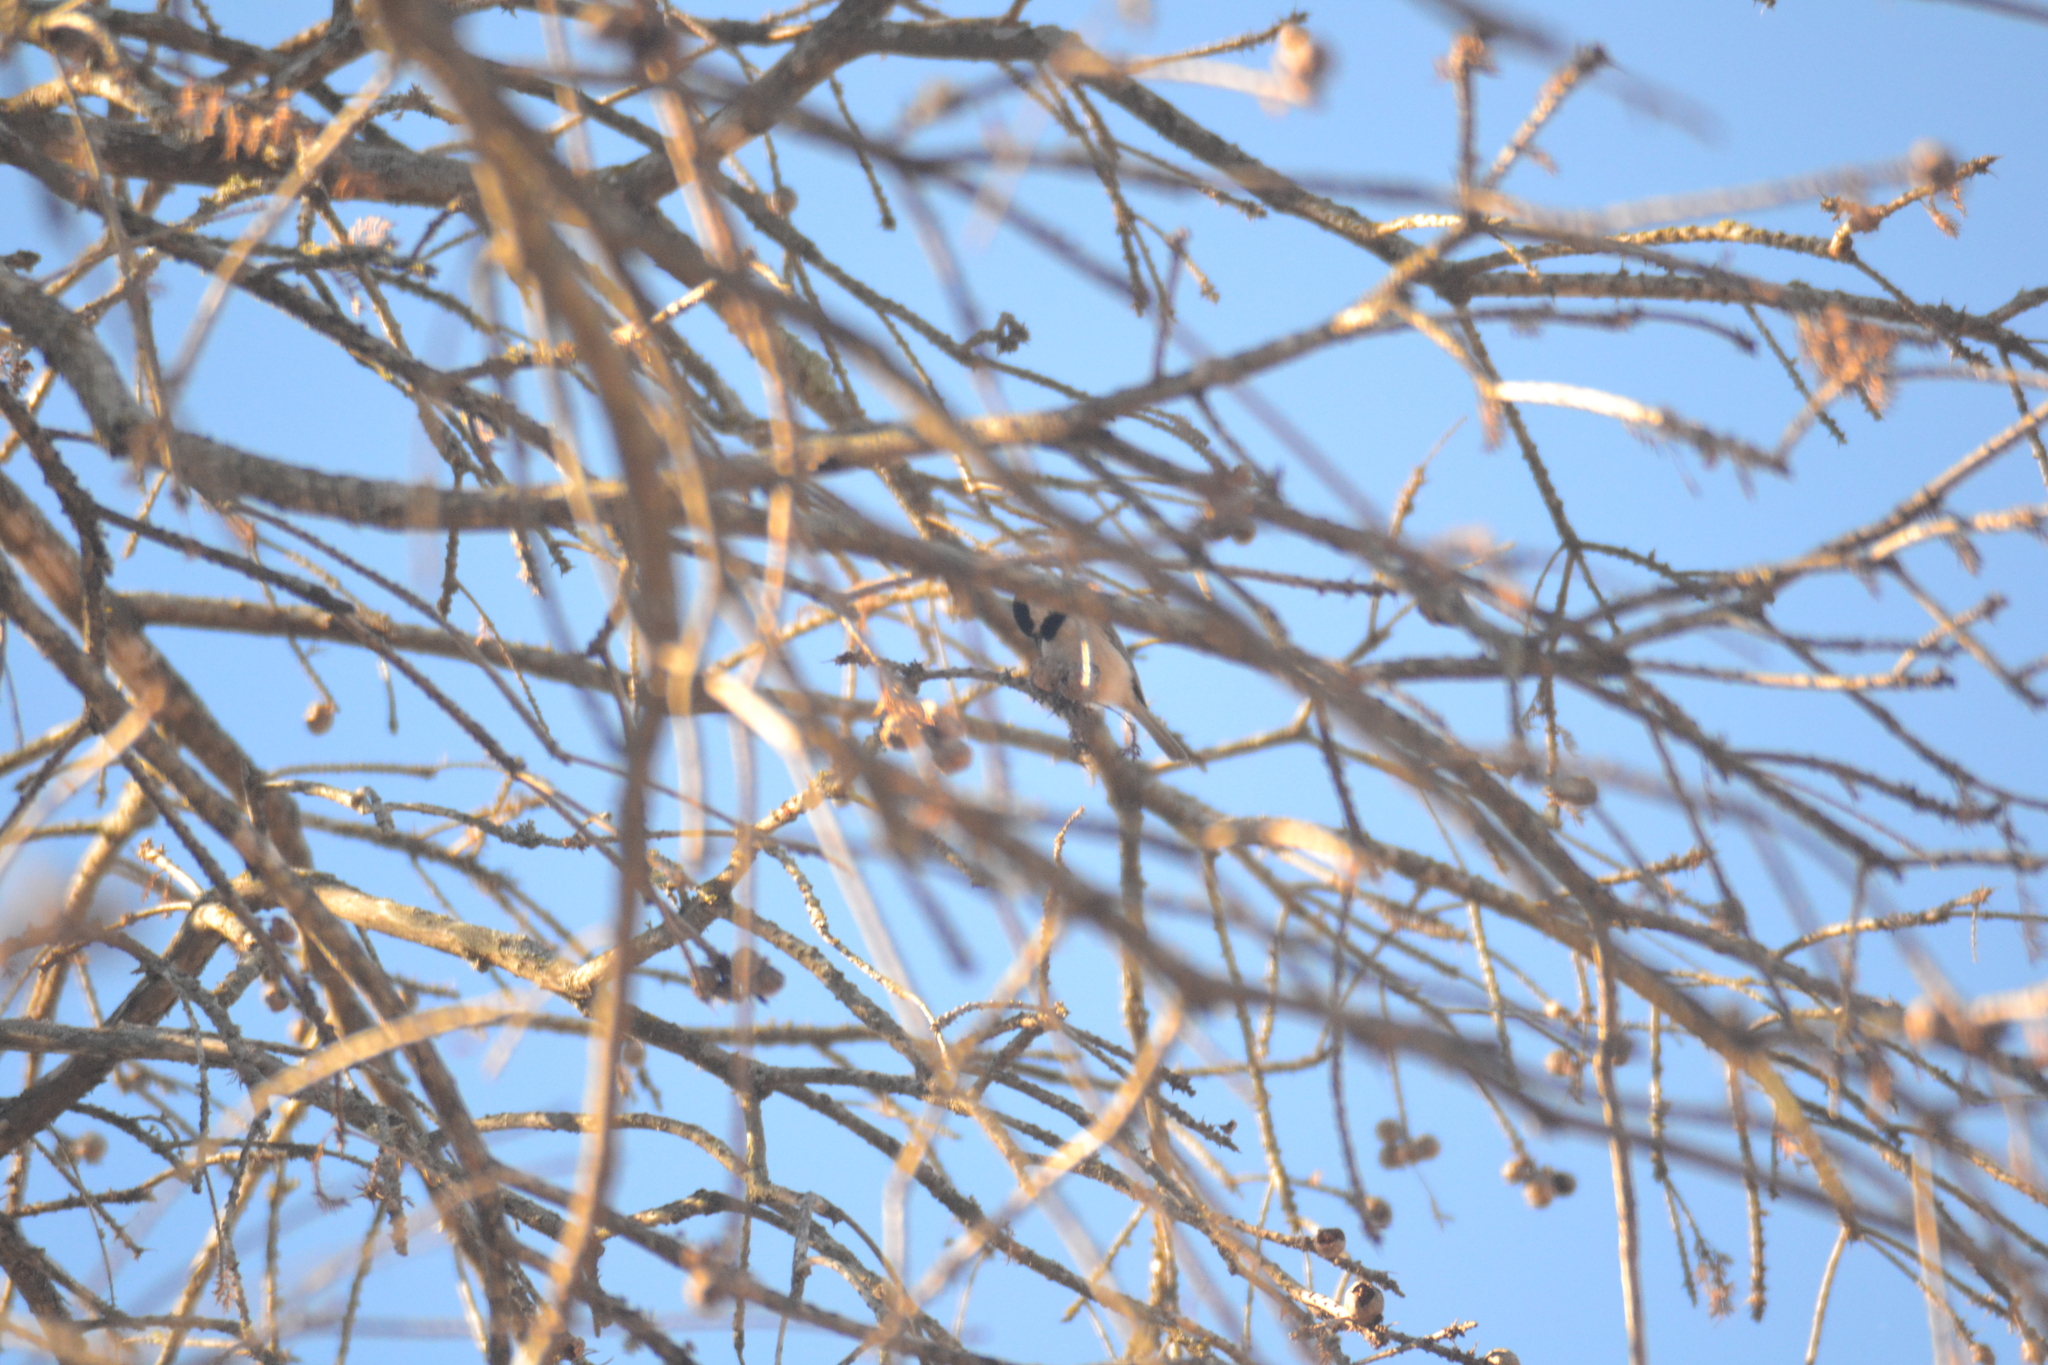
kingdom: Animalia
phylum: Chordata
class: Aves
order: Passeriformes
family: Paridae
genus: Poecile
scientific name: Poecile carolinensis
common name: Carolina chickadee
